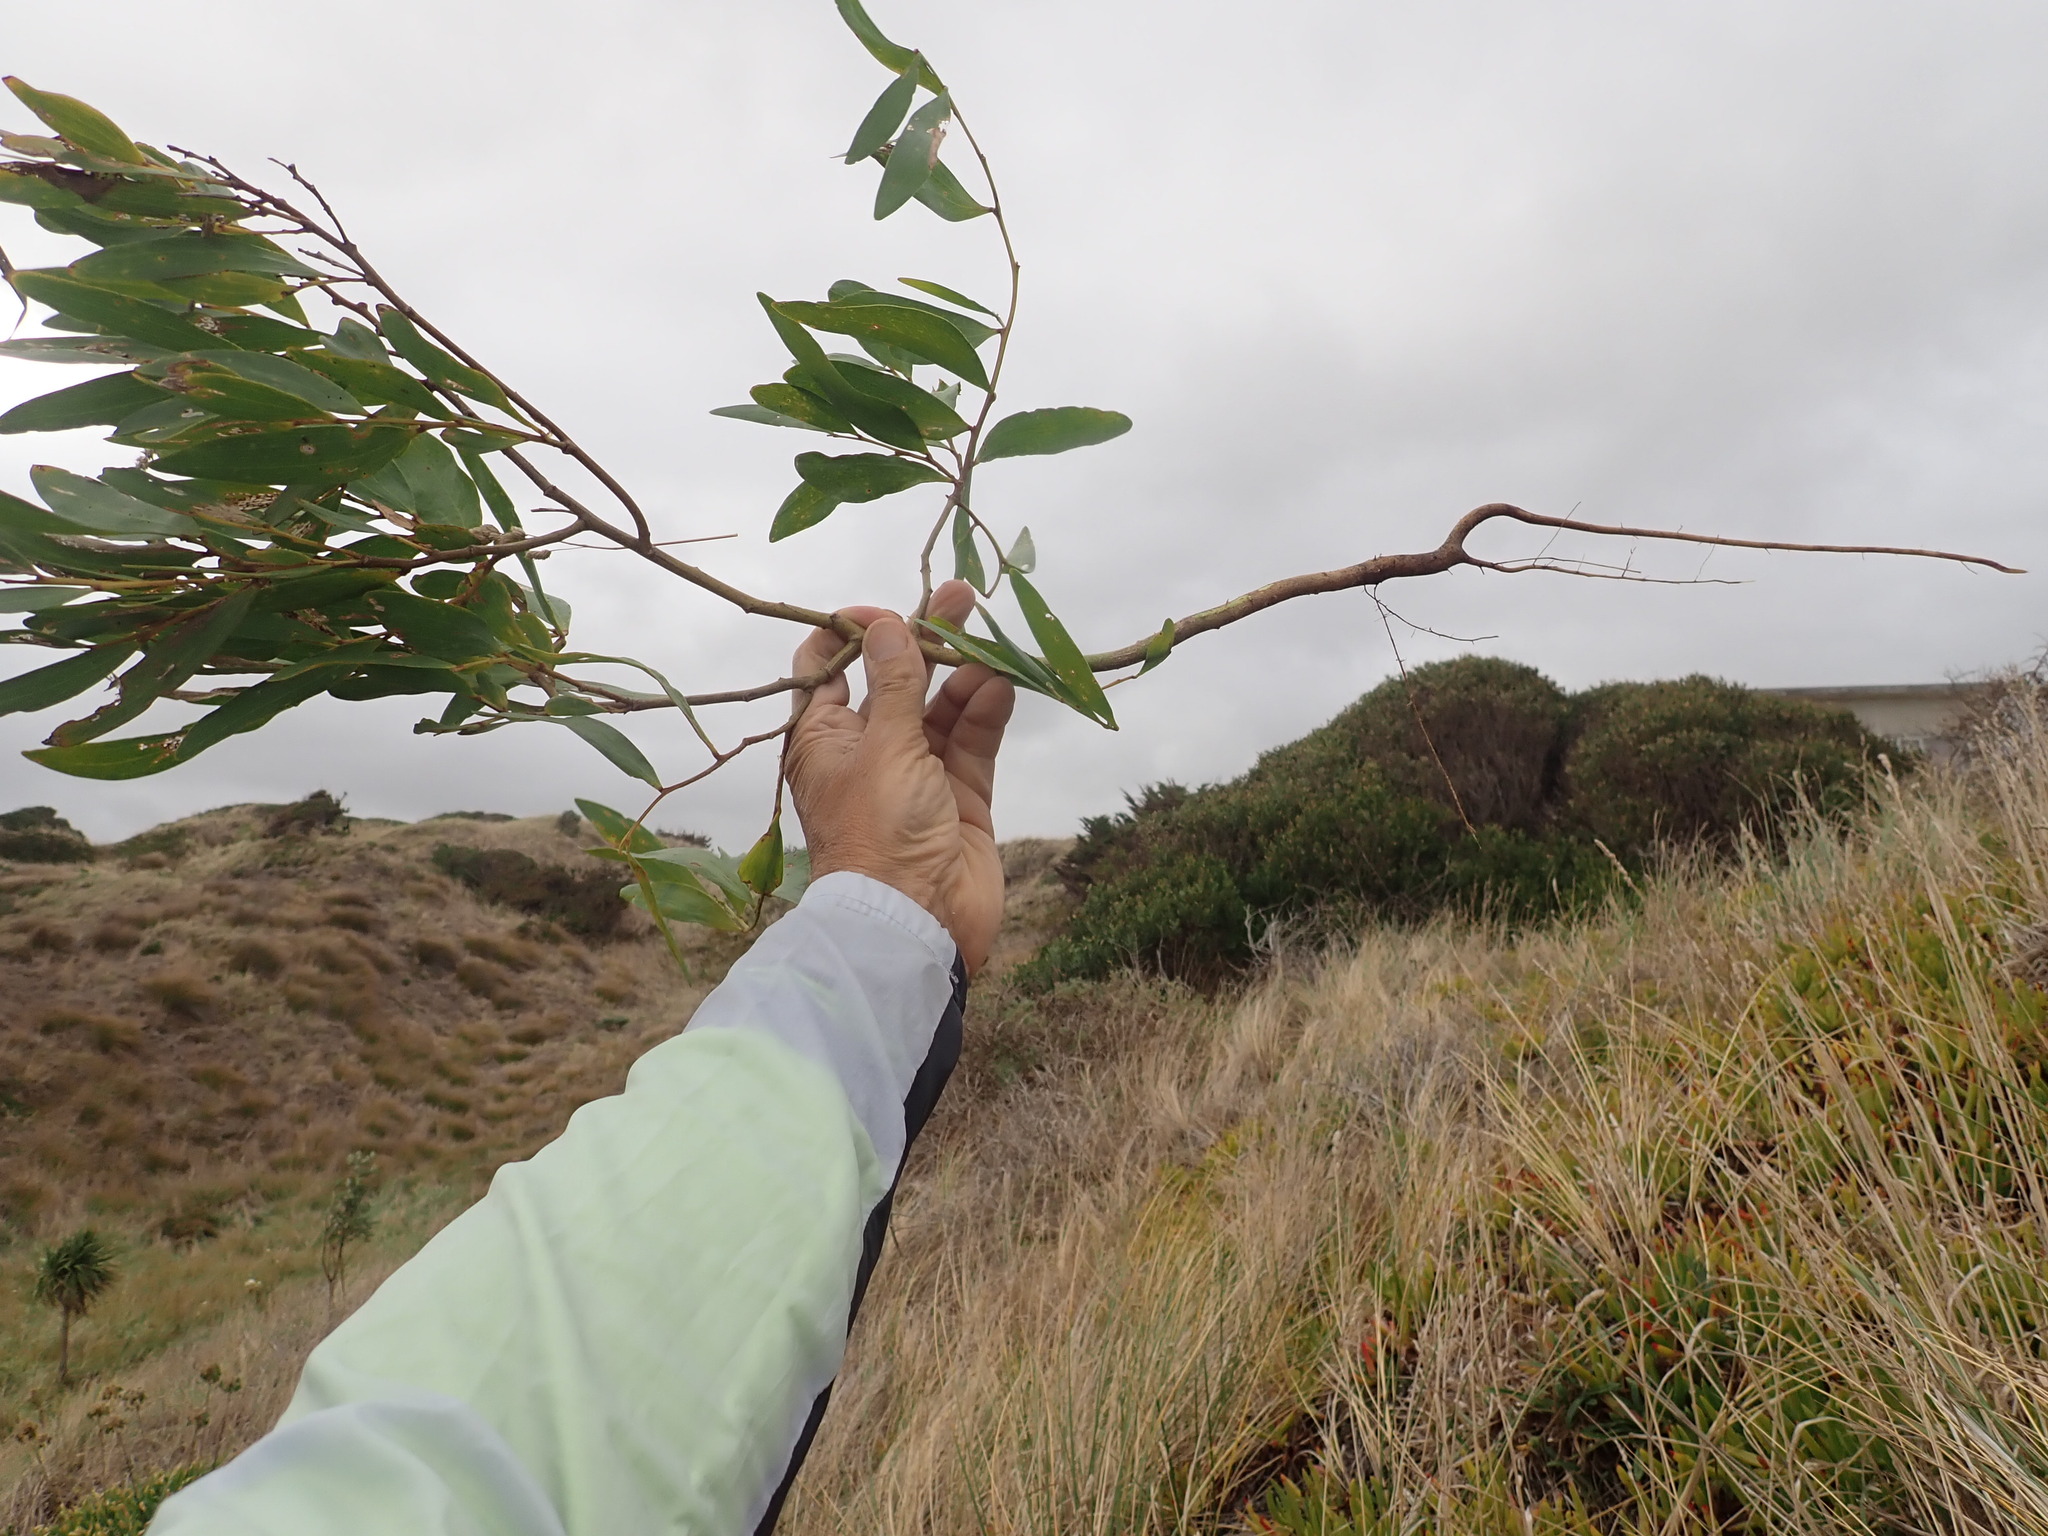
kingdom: Plantae
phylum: Tracheophyta
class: Magnoliopsida
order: Fabales
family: Fabaceae
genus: Acacia
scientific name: Acacia longifolia
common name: Sydney golden wattle
